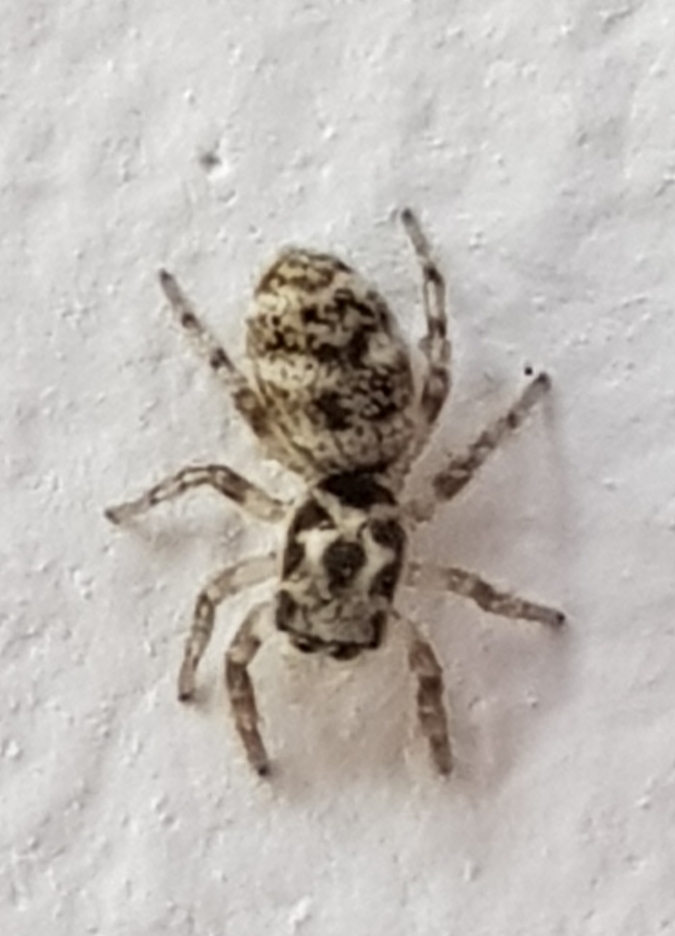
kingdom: Animalia
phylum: Arthropoda
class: Arachnida
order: Araneae
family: Salticidae
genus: Salticus
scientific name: Salticus scenicus
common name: Zebra jumper
